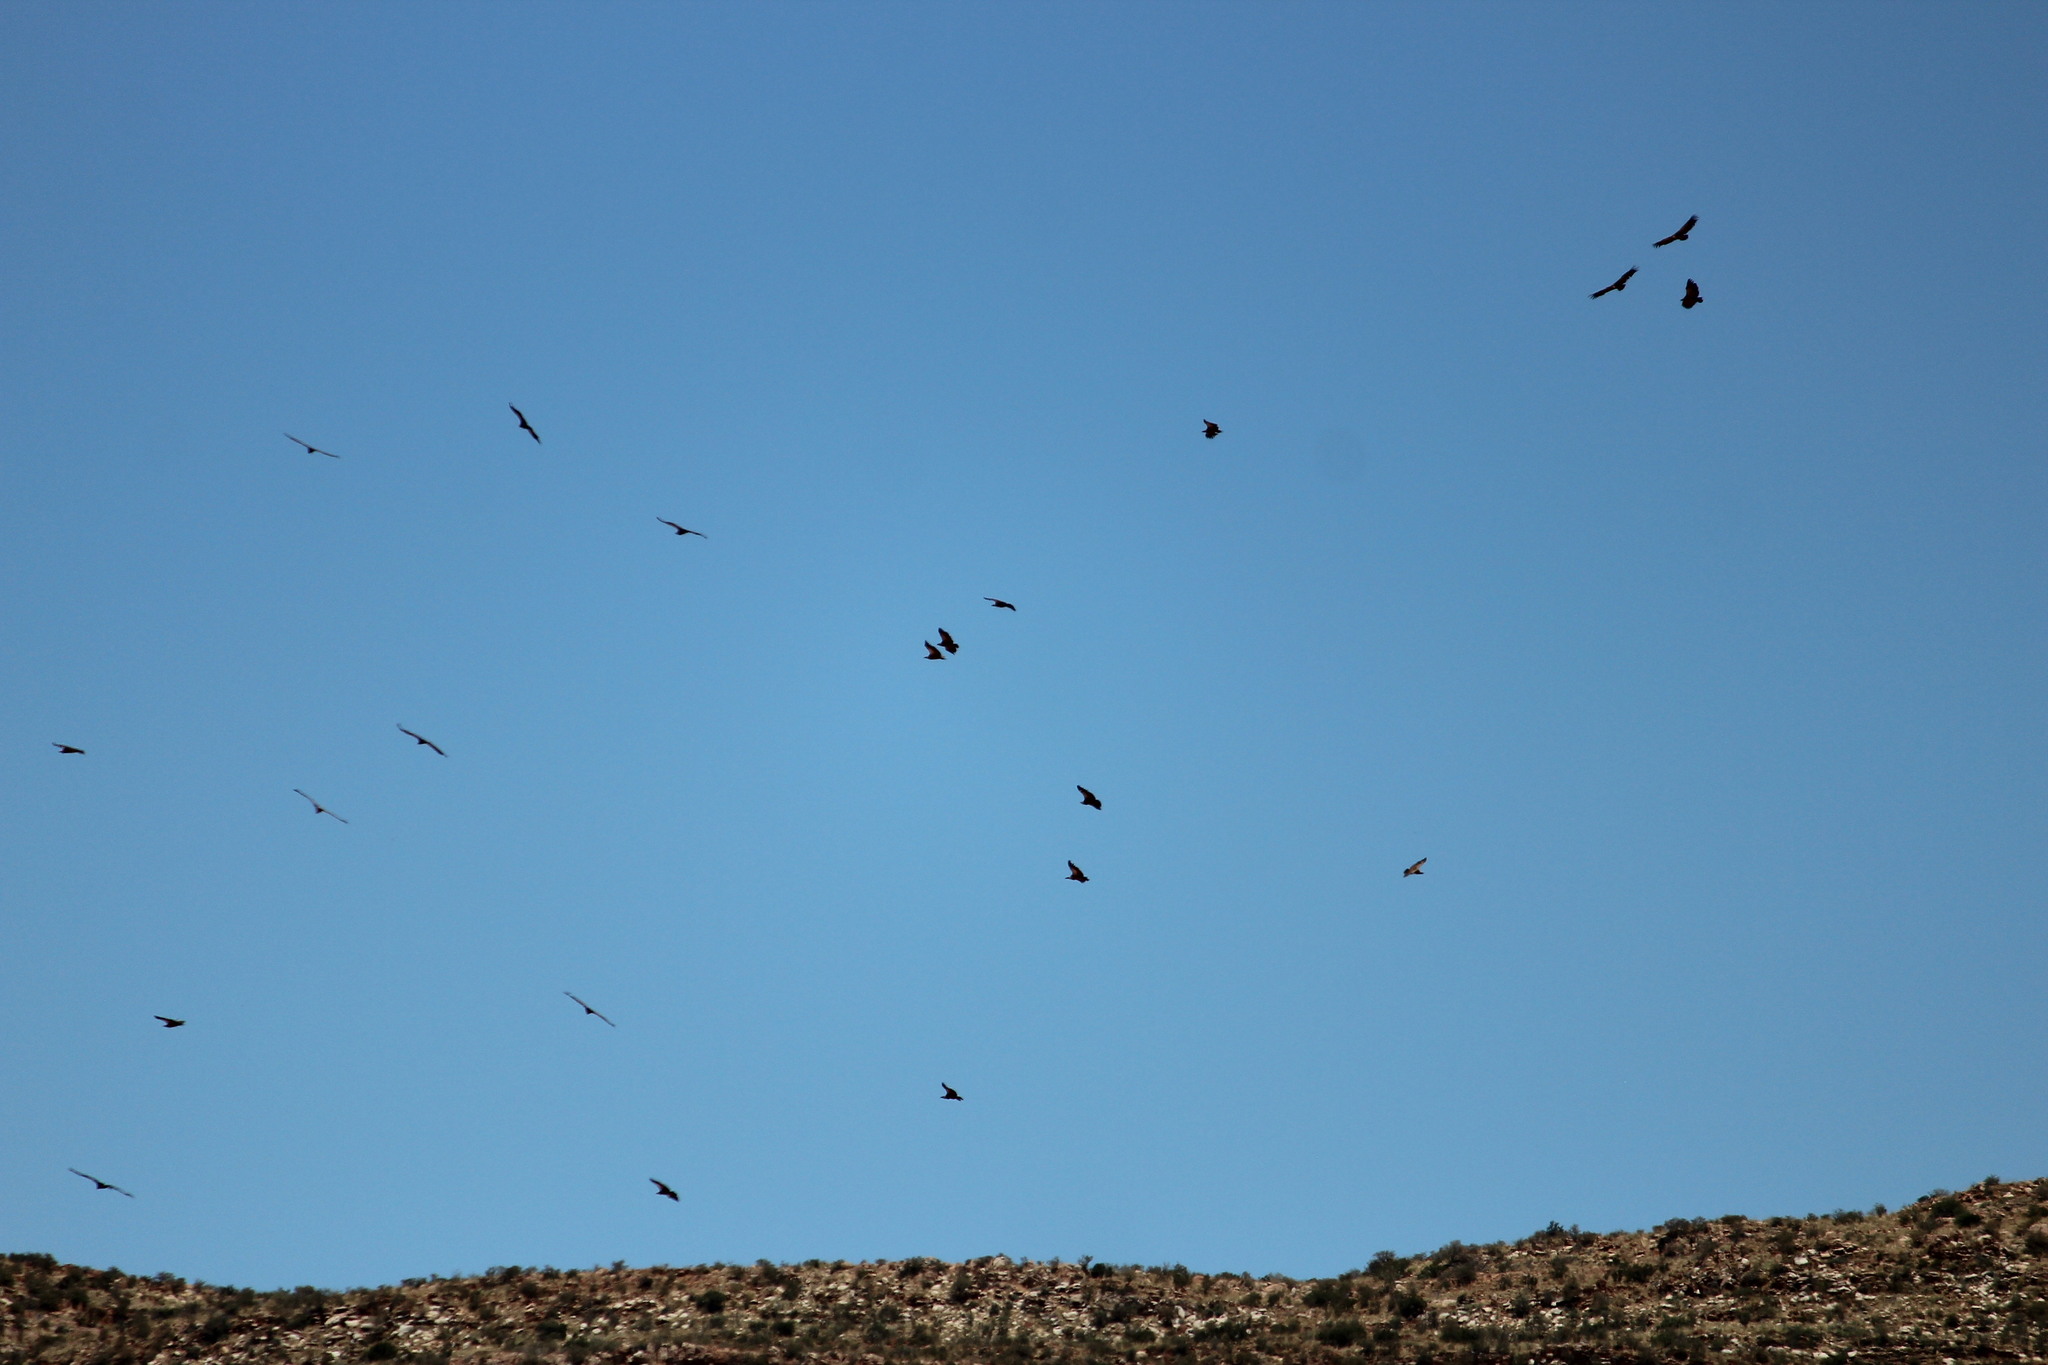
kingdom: Animalia
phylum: Chordata
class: Aves
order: Accipitriformes
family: Accipitridae
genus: Gyps
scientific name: Gyps coprotheres
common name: Cape vulture
